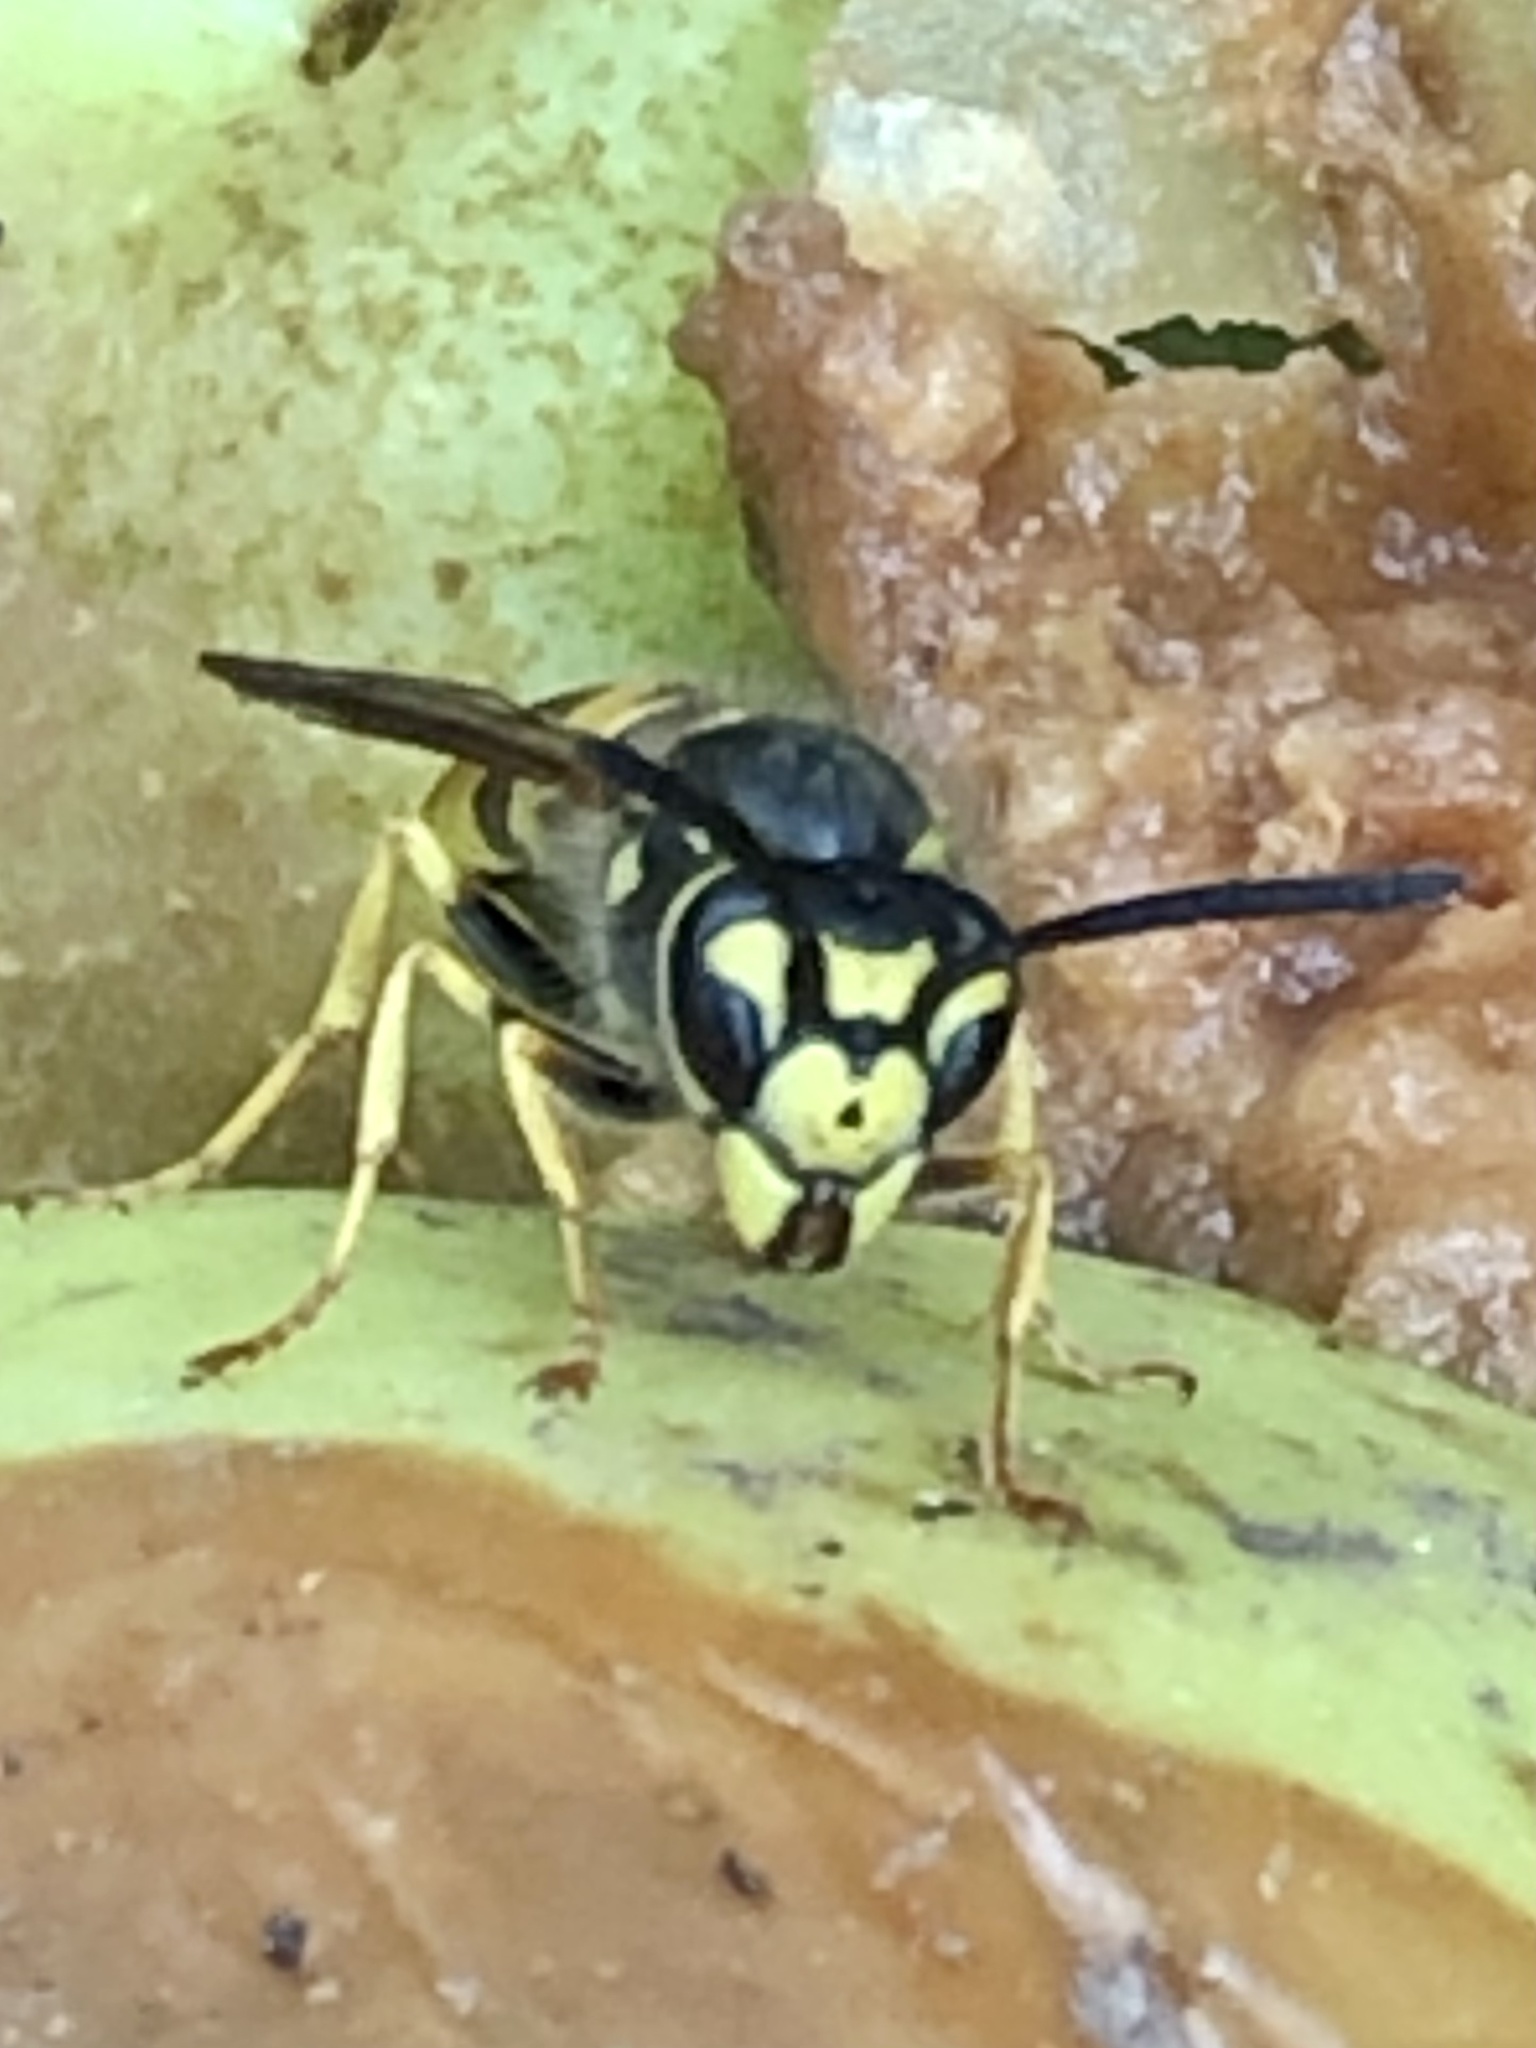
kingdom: Animalia
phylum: Arthropoda
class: Insecta
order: Hymenoptera
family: Vespidae
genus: Vespula
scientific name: Vespula germanica
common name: German wasp
